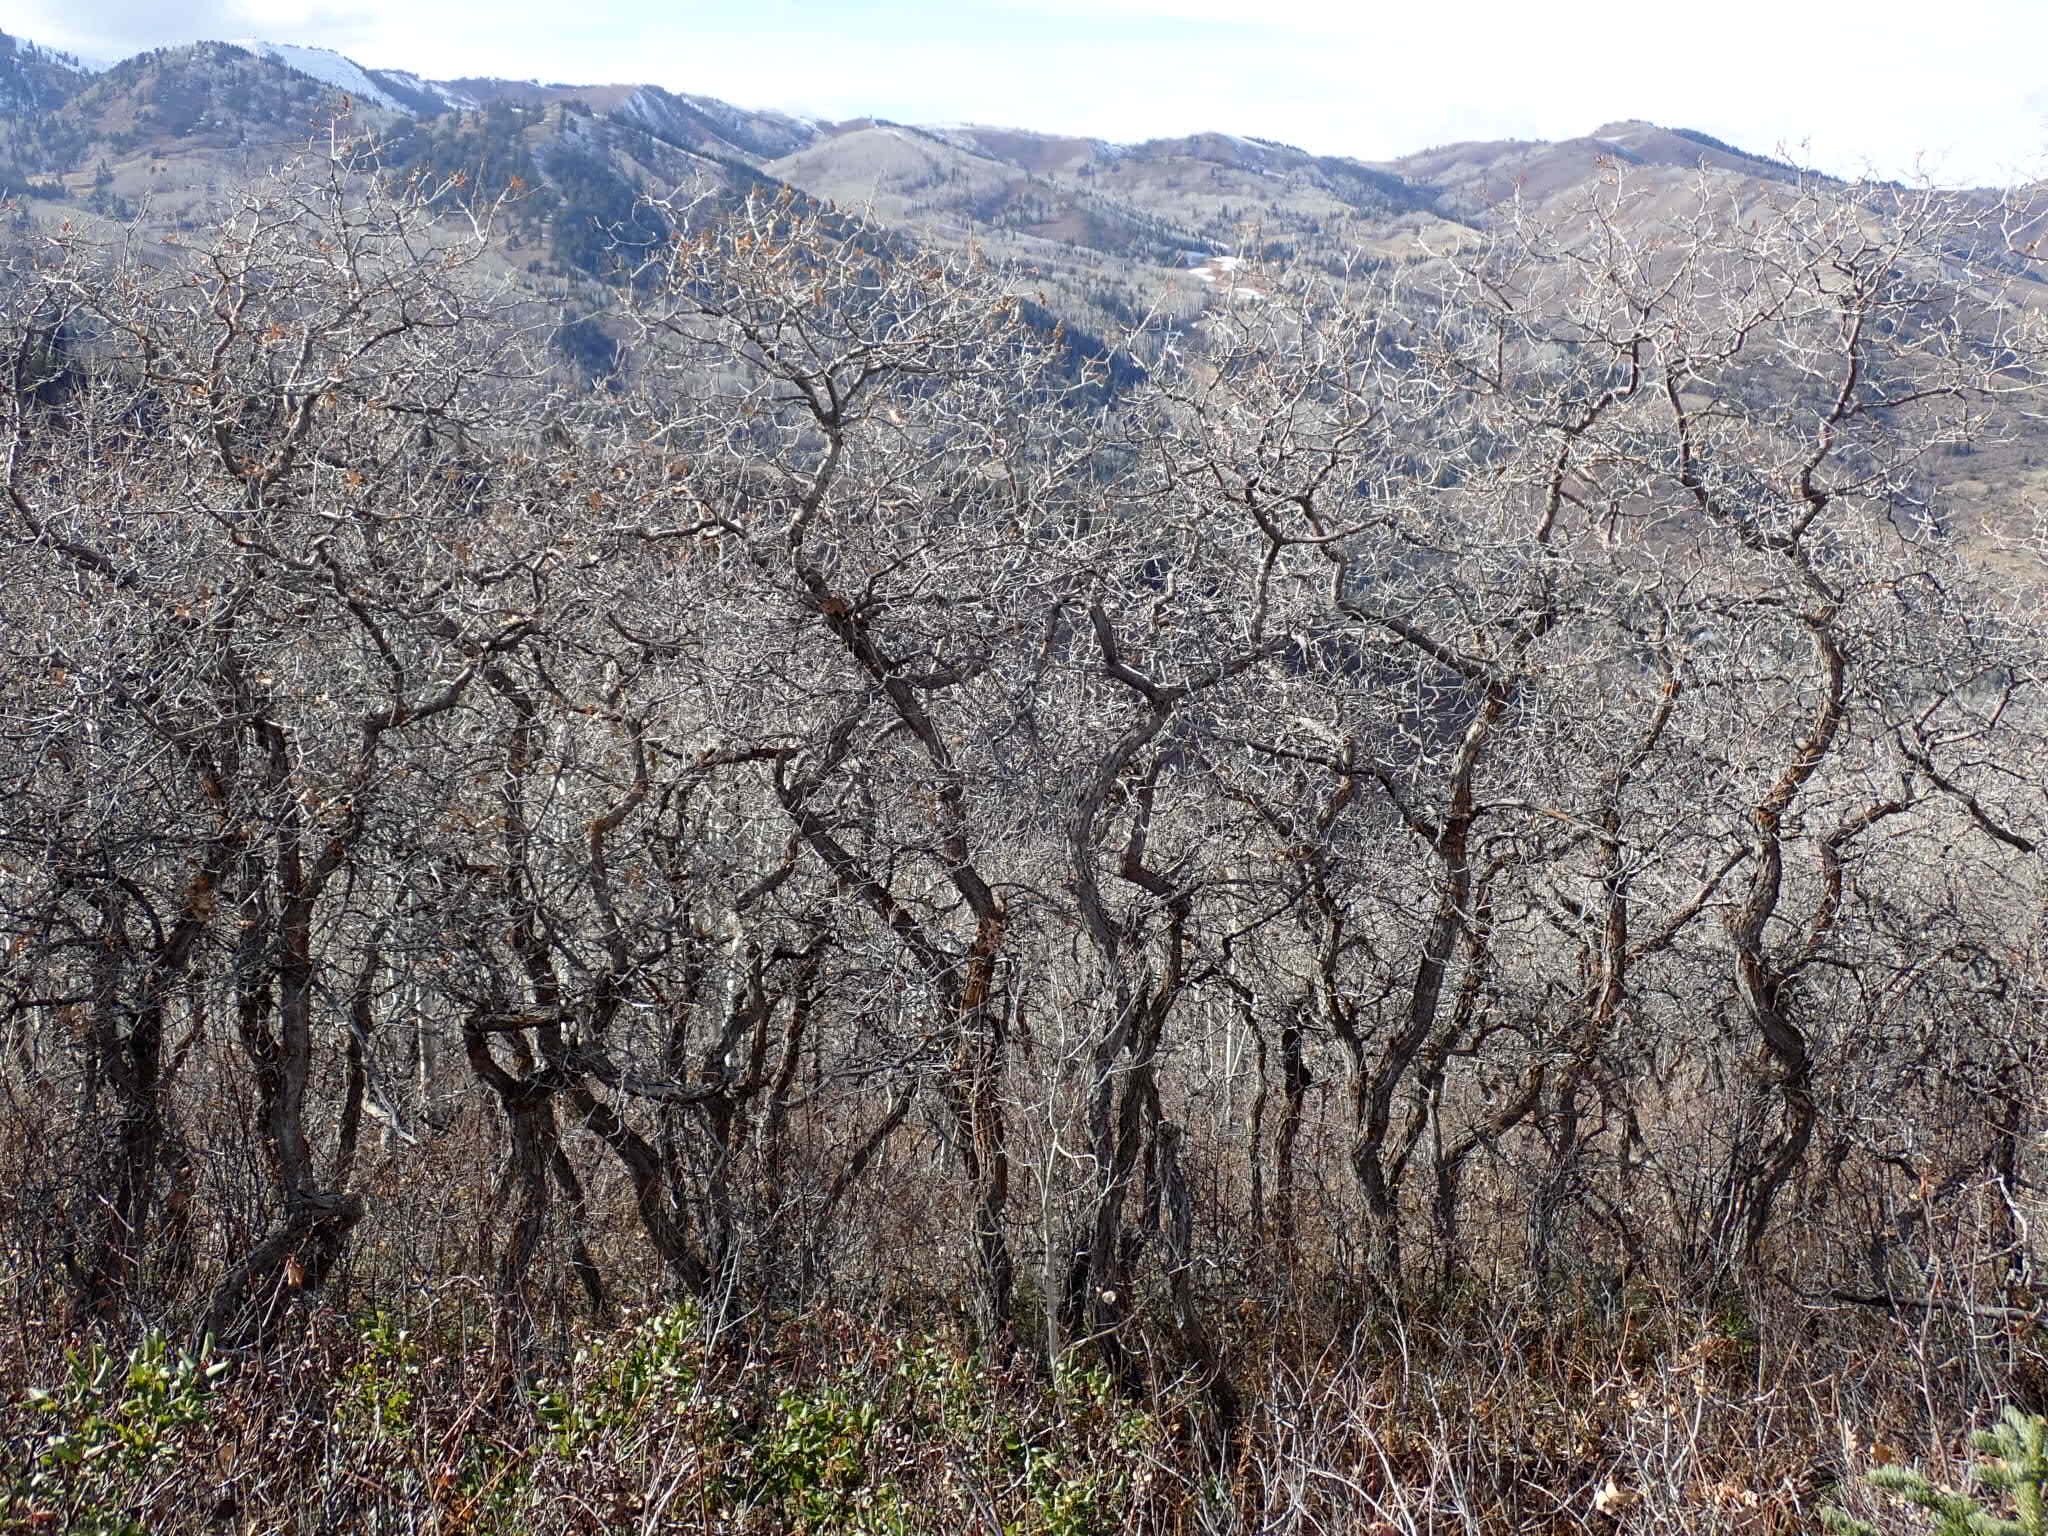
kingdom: Plantae
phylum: Tracheophyta
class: Magnoliopsida
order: Fagales
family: Fagaceae
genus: Quercus
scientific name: Quercus gambelii
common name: Gambel oak
